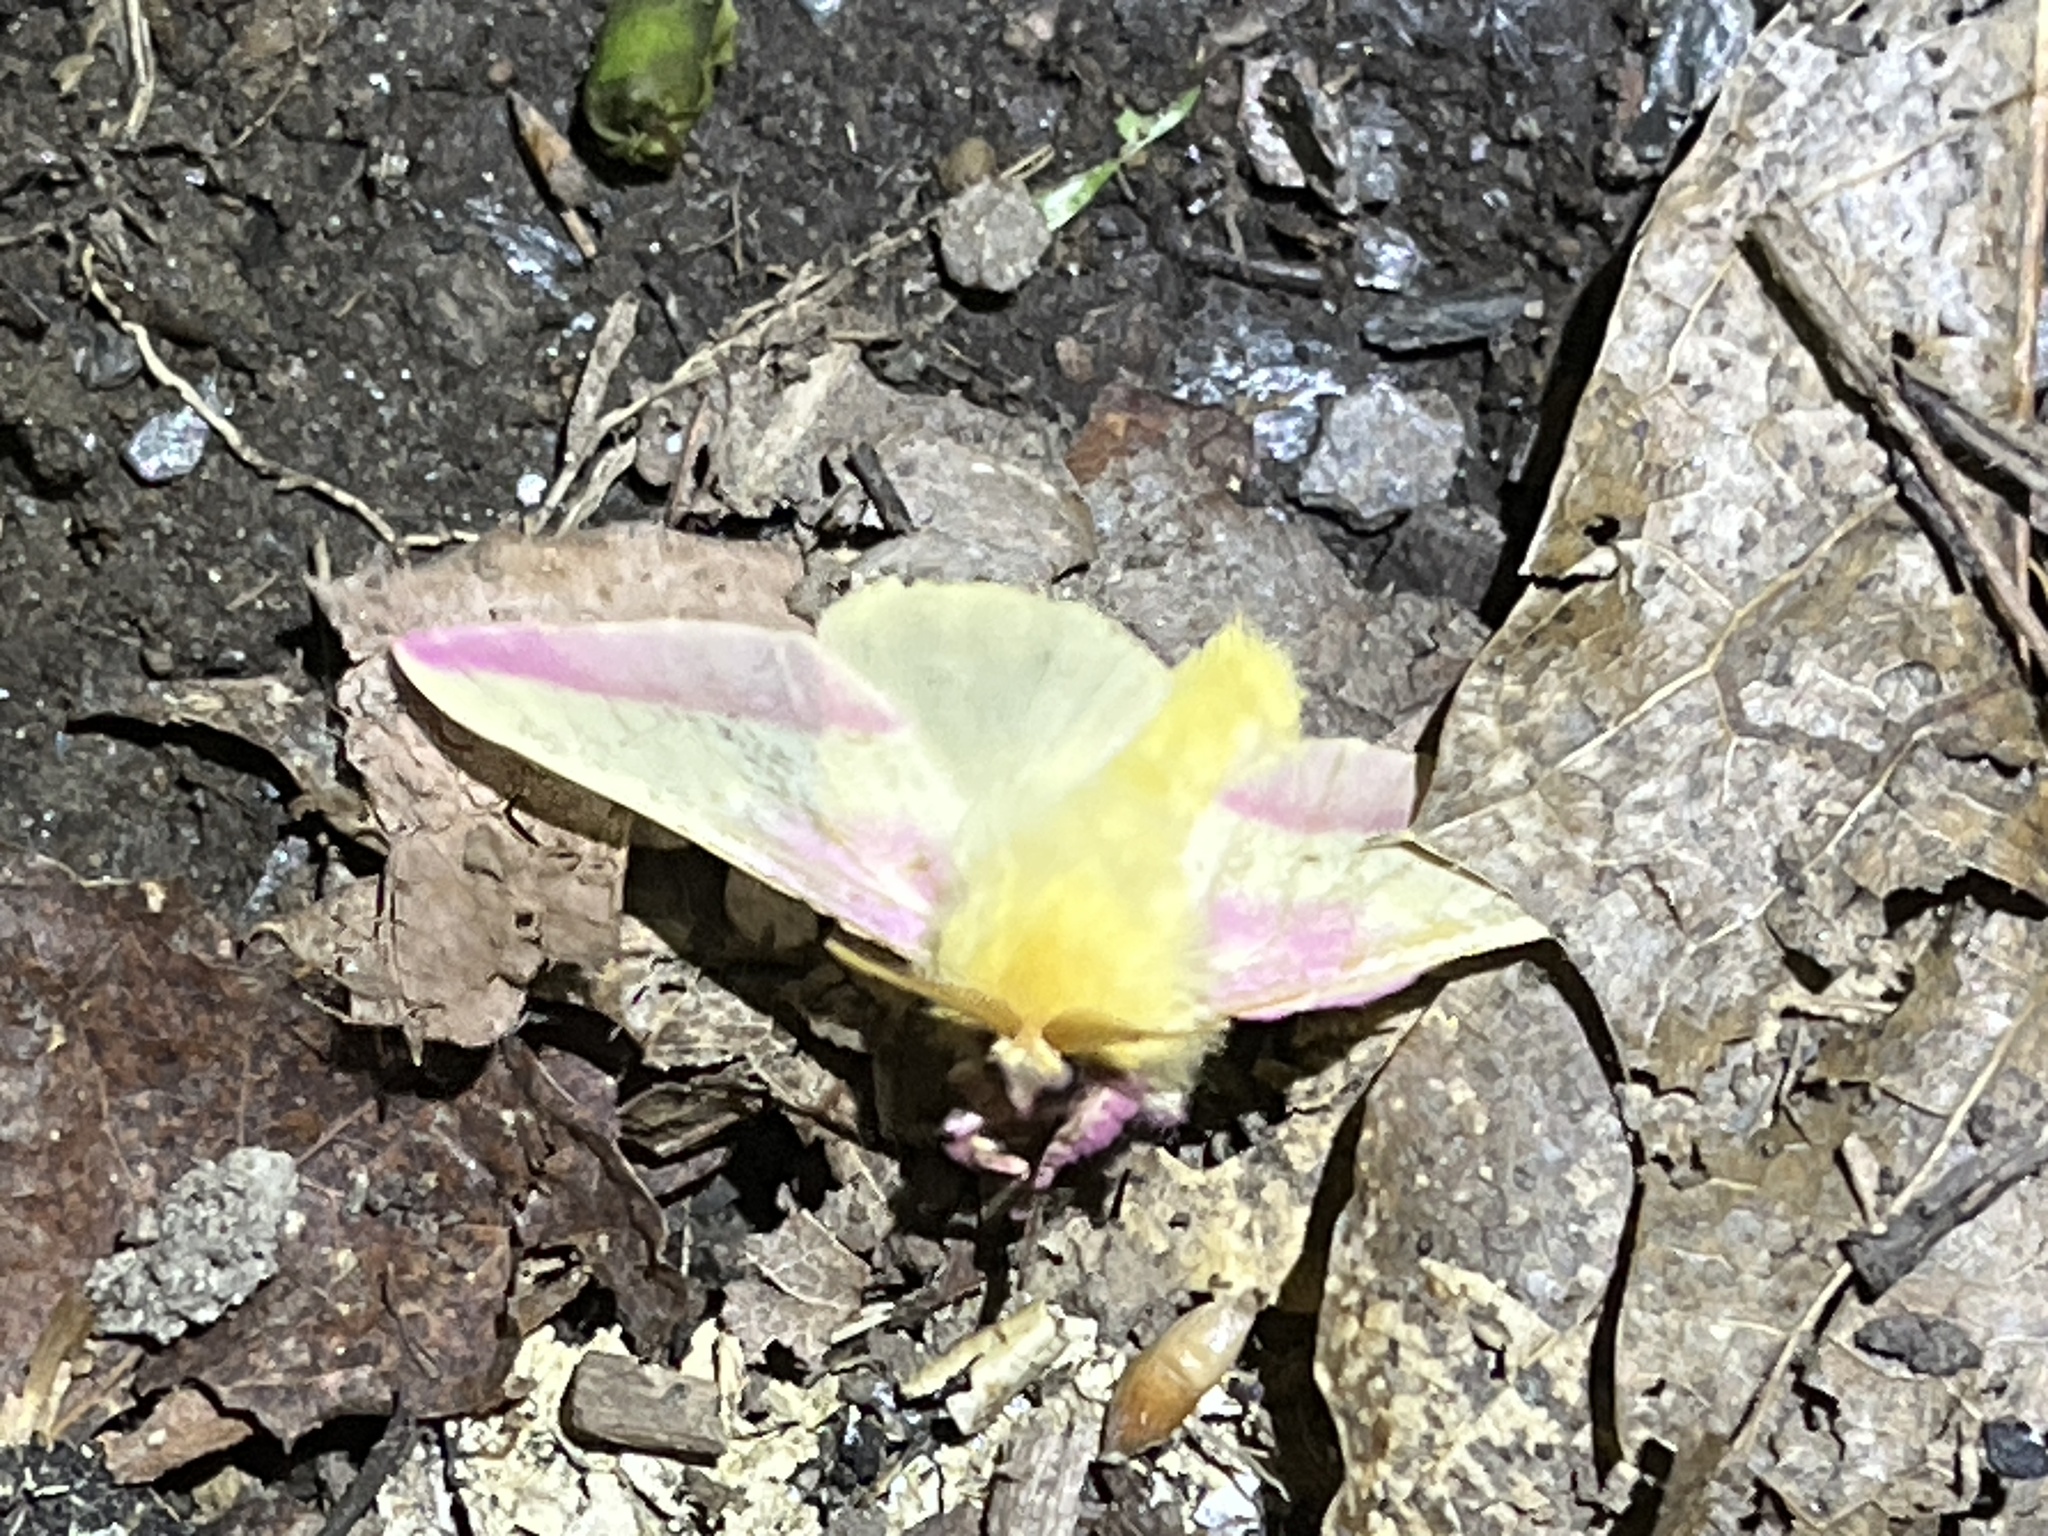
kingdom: Animalia
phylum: Arthropoda
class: Insecta
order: Lepidoptera
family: Saturniidae
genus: Dryocampa
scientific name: Dryocampa rubicunda
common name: Rosy maple moth
